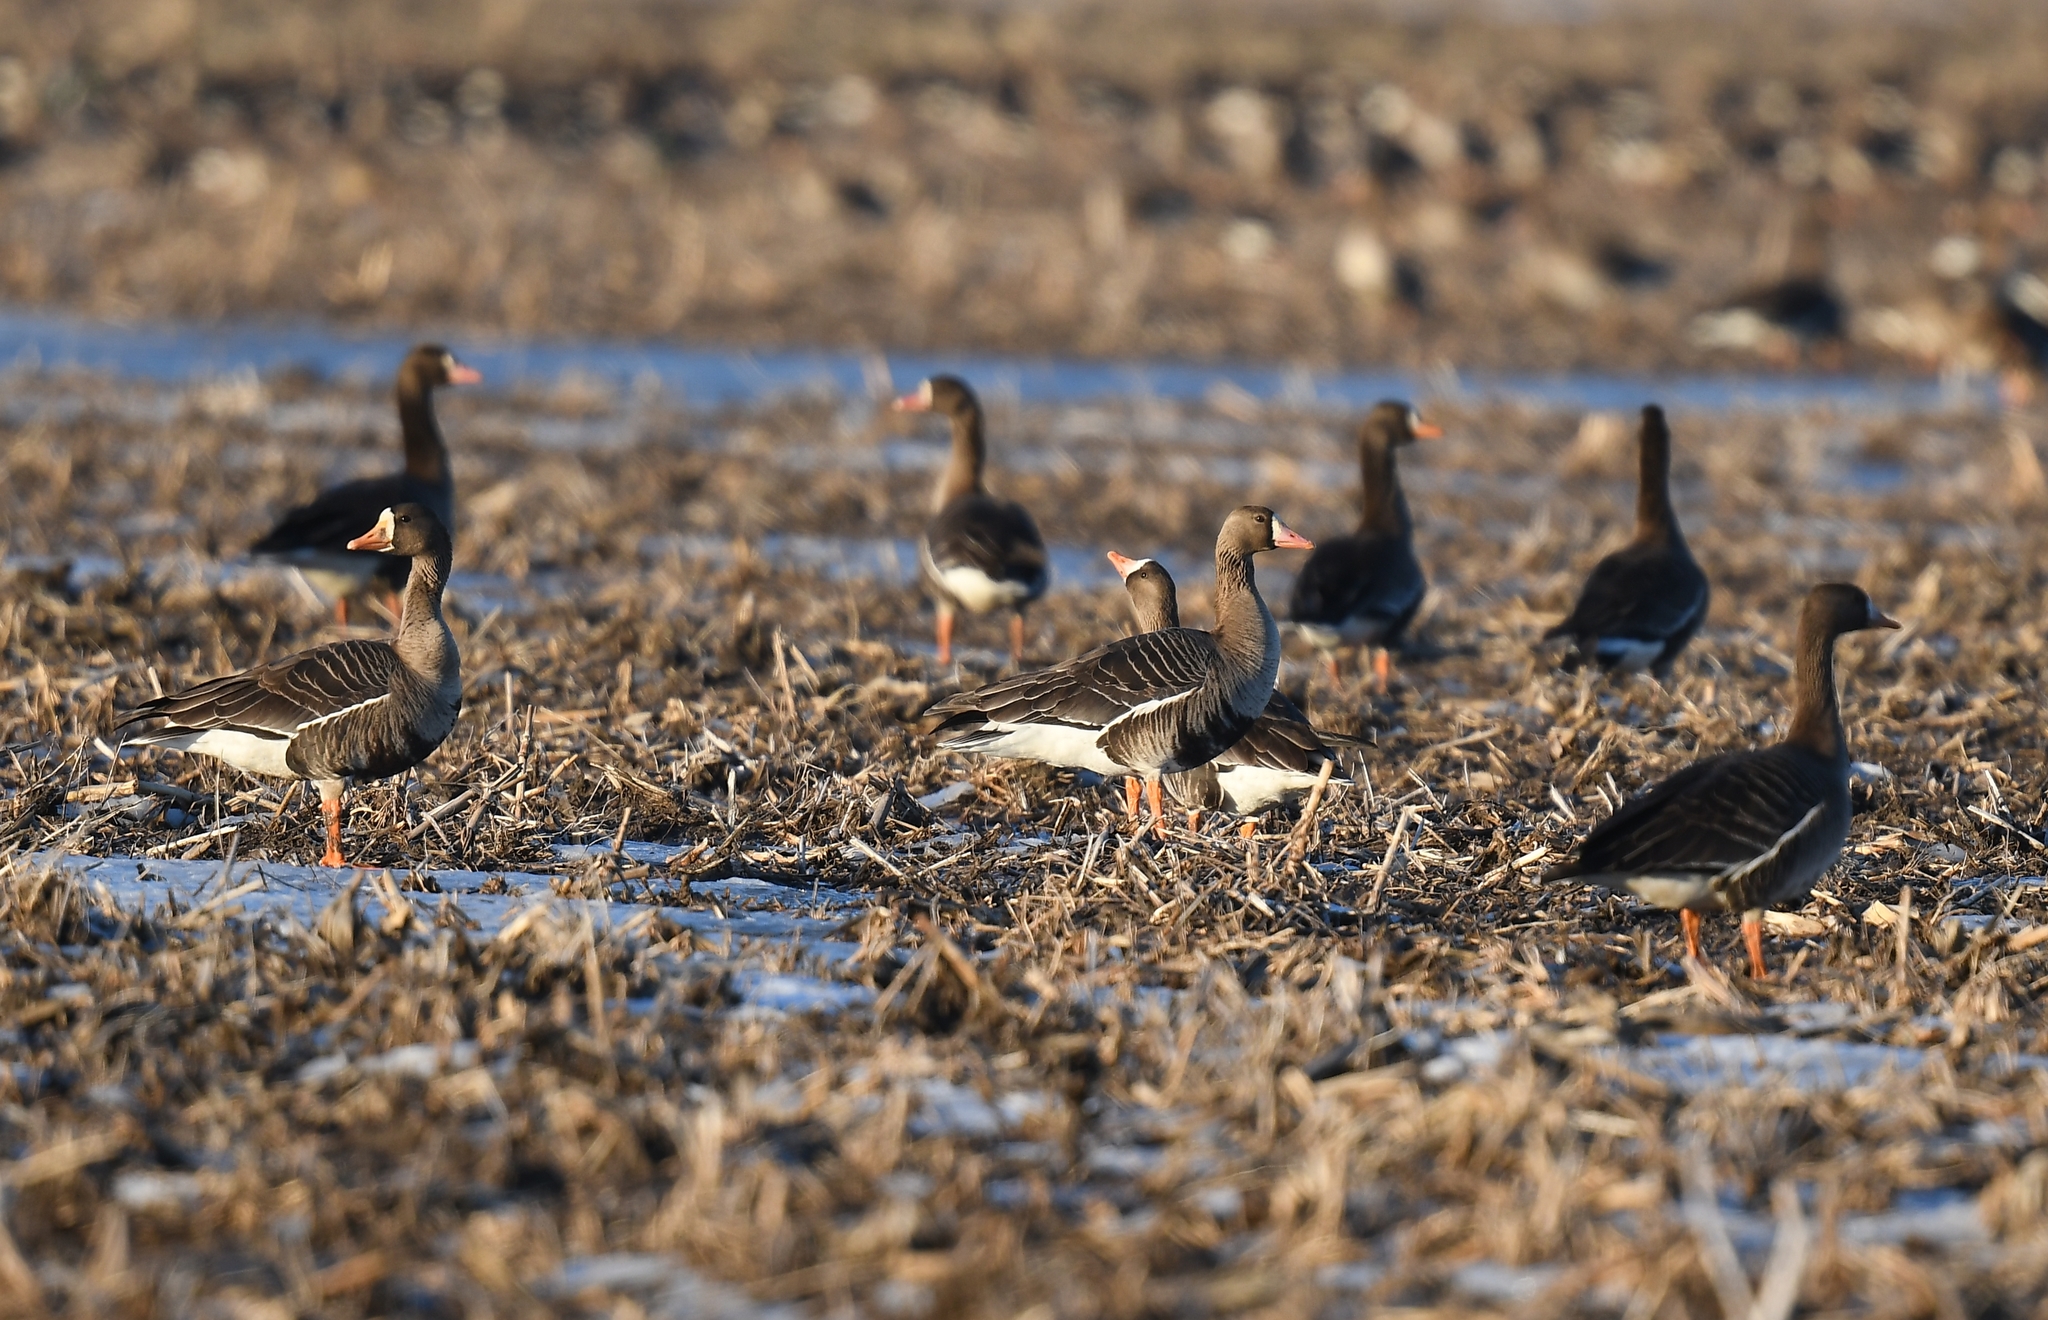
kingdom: Animalia
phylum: Chordata
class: Aves
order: Anseriformes
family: Anatidae
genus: Anser
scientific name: Anser albifrons
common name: Greater white-fronted goose
